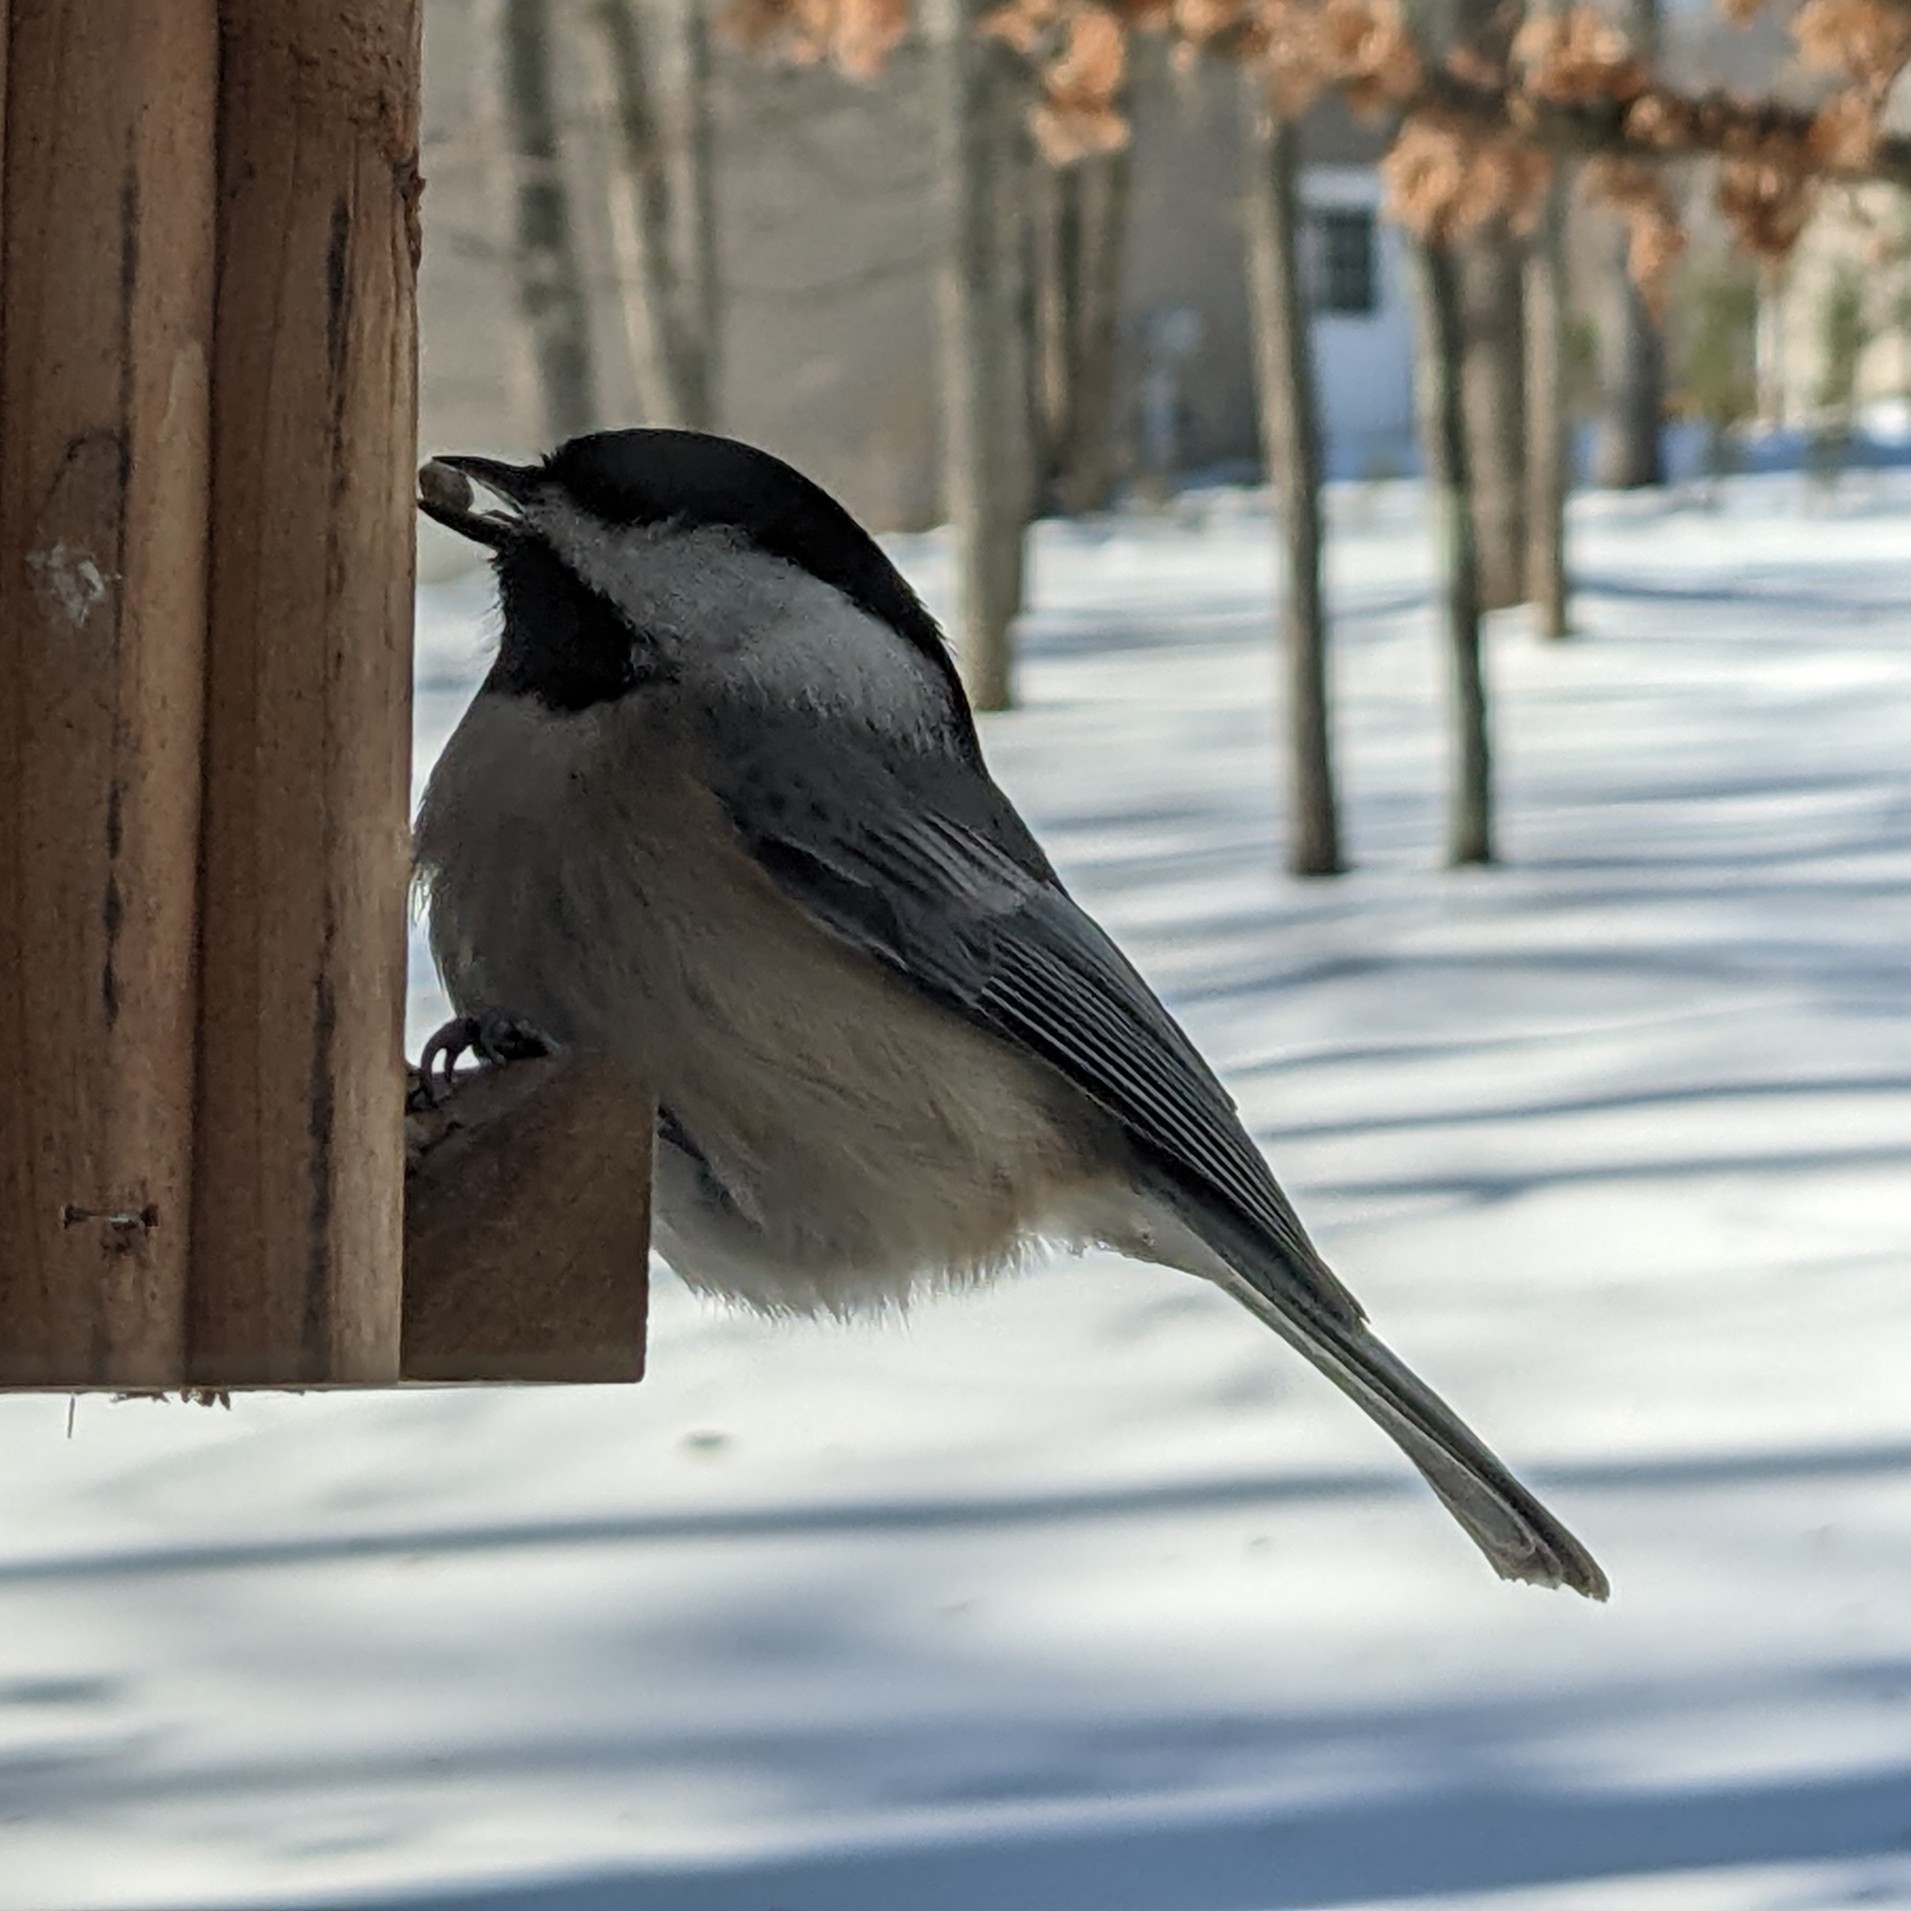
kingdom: Animalia
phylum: Chordata
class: Aves
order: Passeriformes
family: Paridae
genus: Poecile
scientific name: Poecile carolinensis
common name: Carolina chickadee
